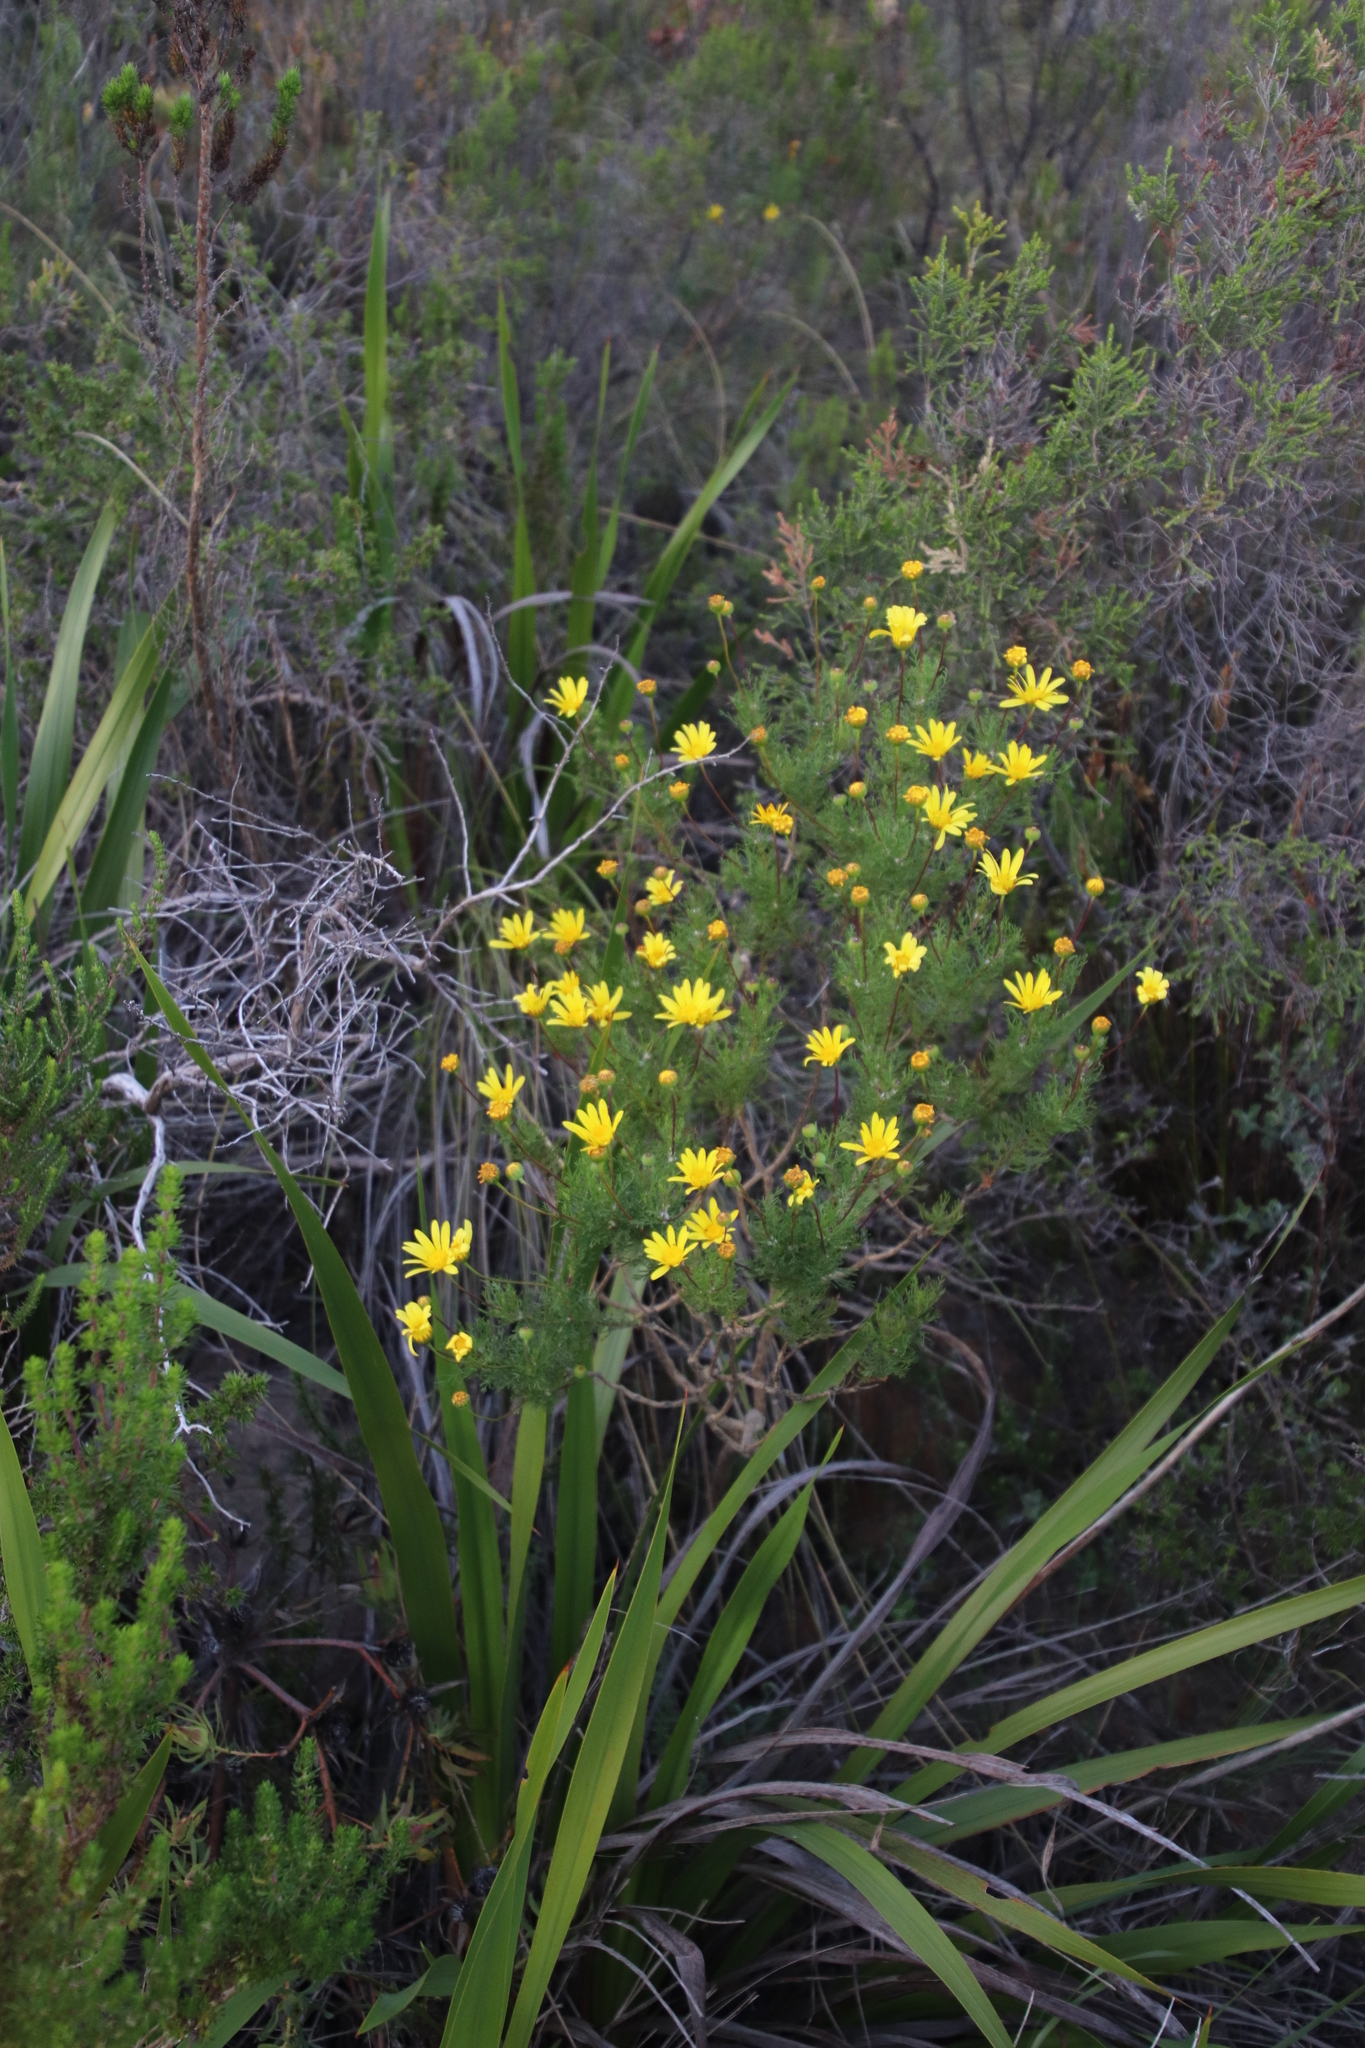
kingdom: Plantae
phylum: Tracheophyta
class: Magnoliopsida
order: Asterales
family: Asteraceae
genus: Euryops
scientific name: Euryops abrotanifolius
